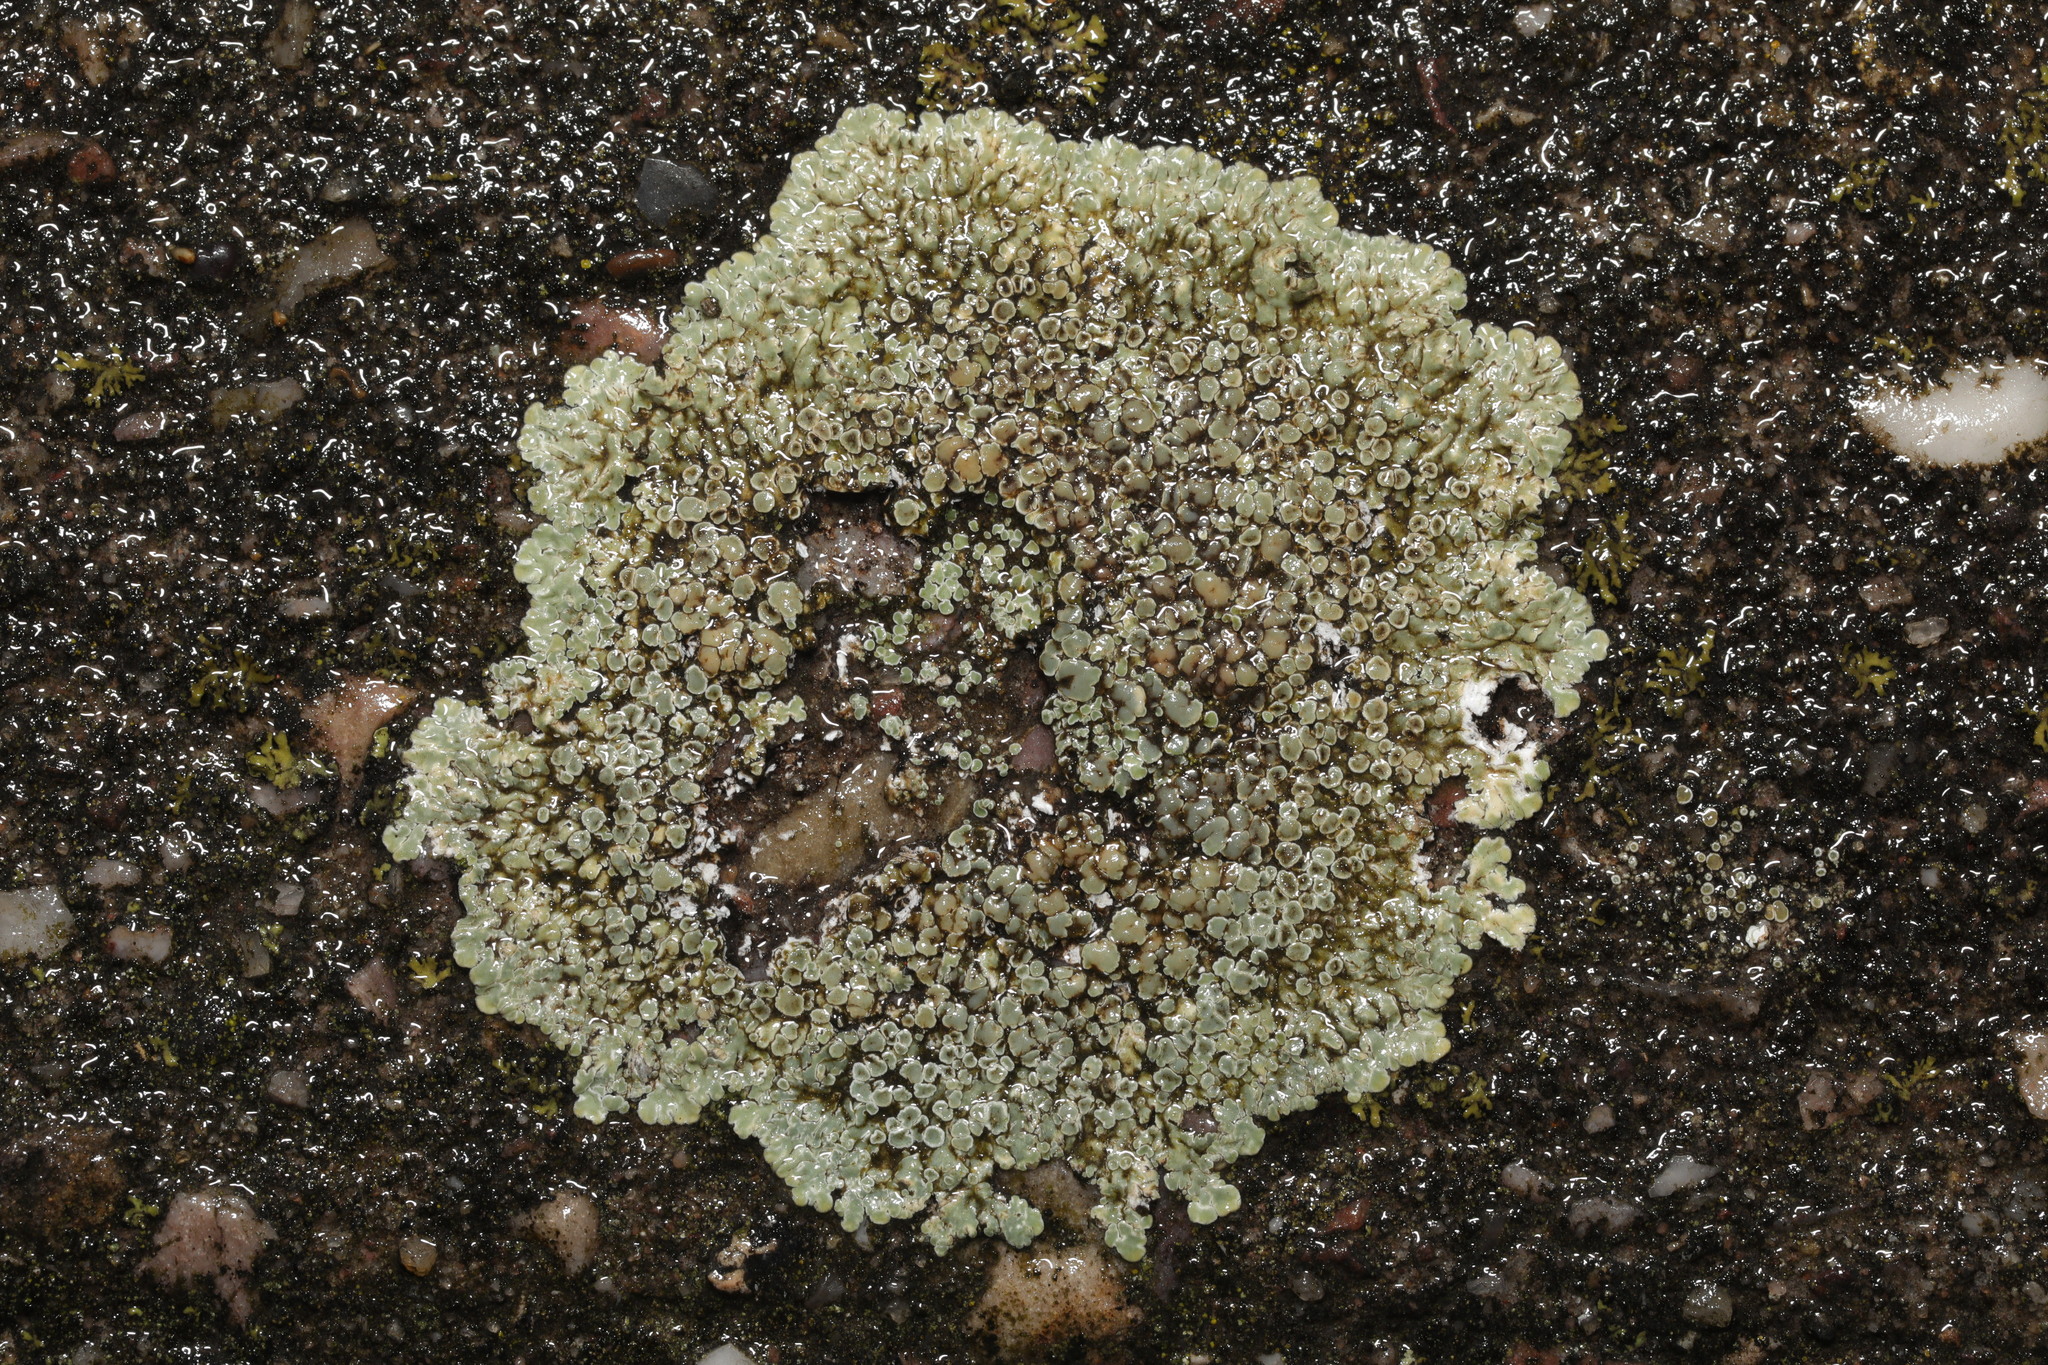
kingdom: Fungi
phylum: Ascomycota
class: Lecanoromycetes
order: Lecanorales
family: Lecanoraceae
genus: Protoparmeliopsis
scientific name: Protoparmeliopsis muralis
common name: Stonewall rim lichen
